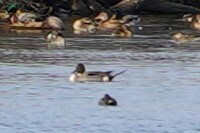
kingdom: Animalia
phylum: Chordata
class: Aves
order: Anseriformes
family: Anatidae
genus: Anas
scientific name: Anas acuta
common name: Northern pintail
